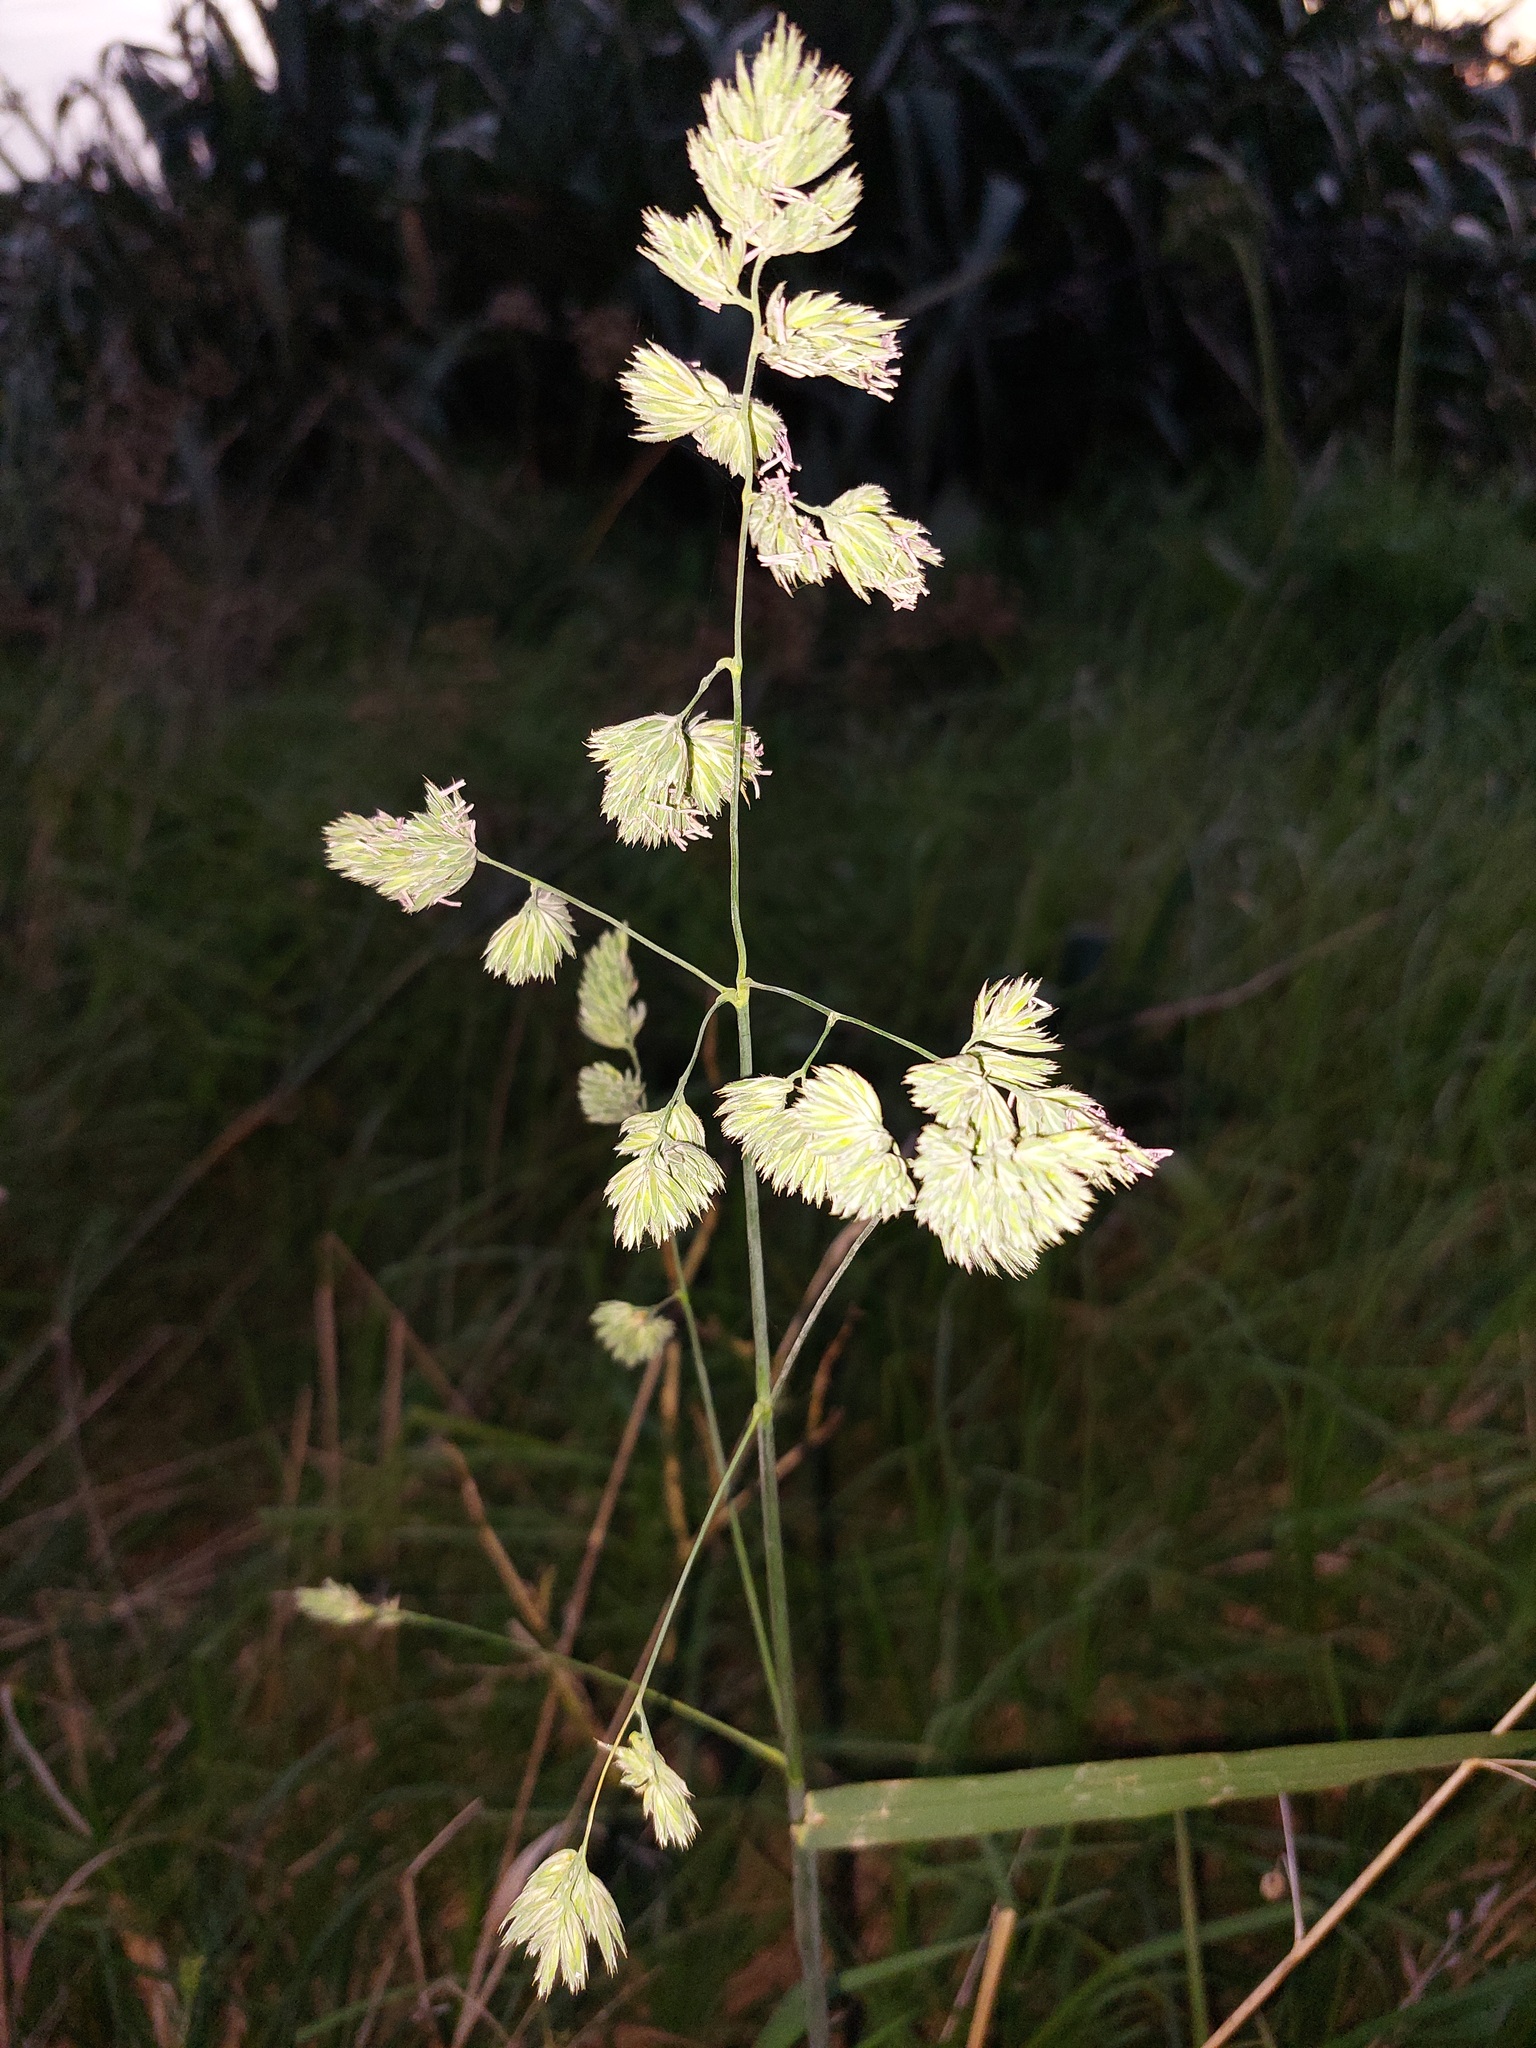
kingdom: Plantae
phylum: Tracheophyta
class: Liliopsida
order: Poales
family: Poaceae
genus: Dactylis
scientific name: Dactylis glomerata
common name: Orchardgrass
